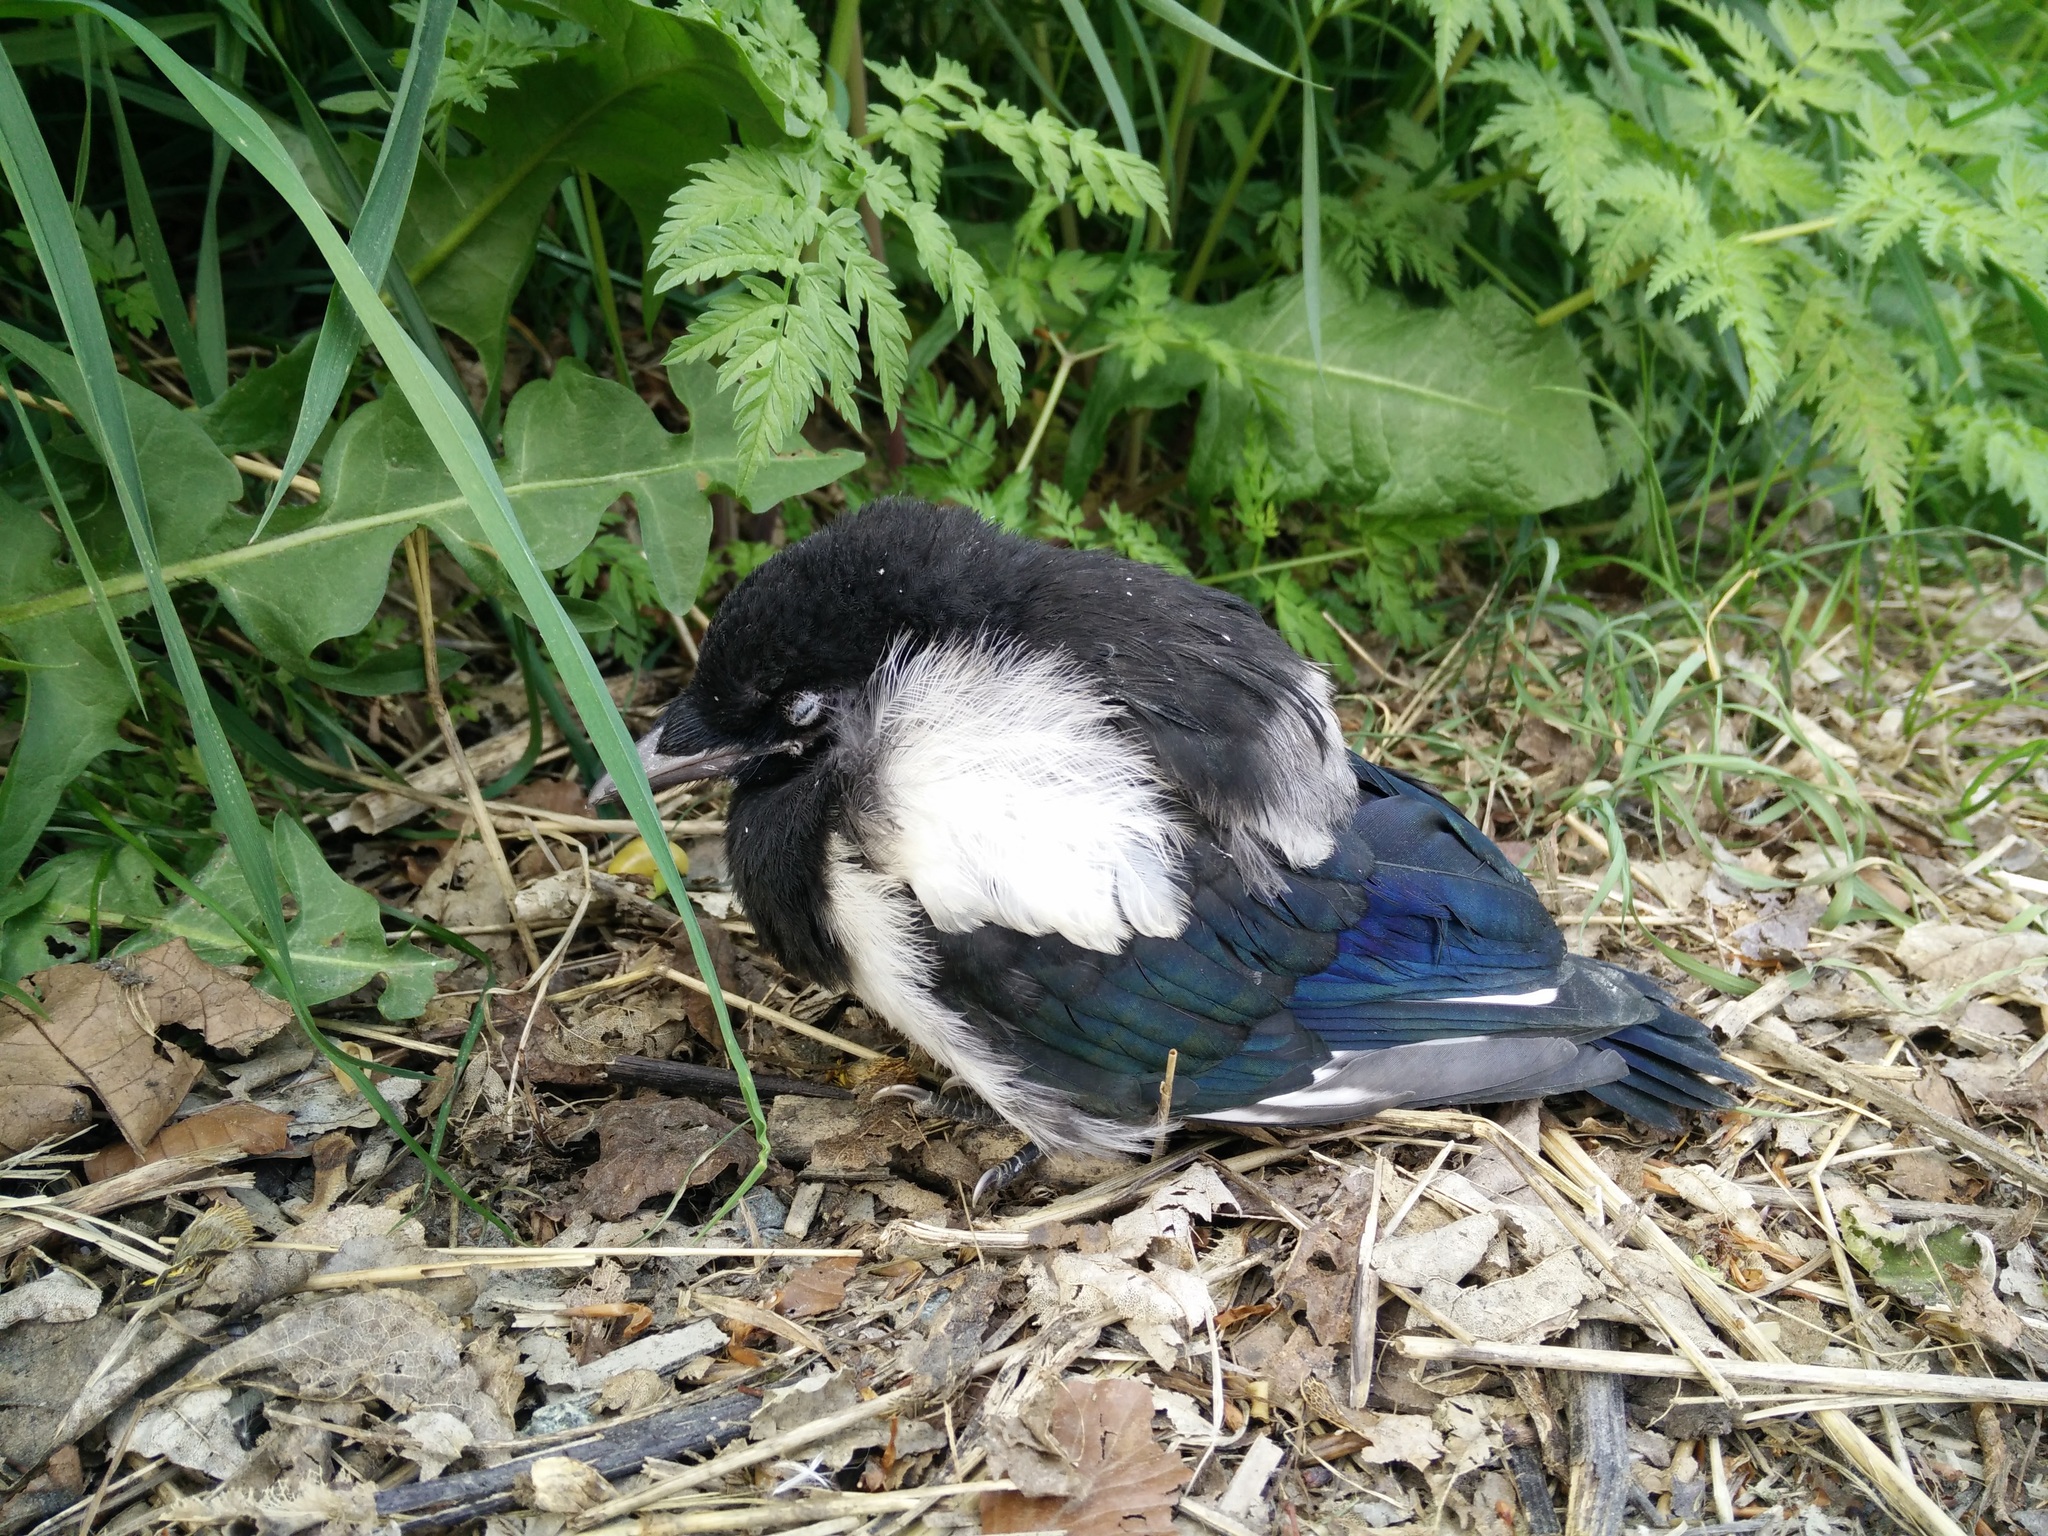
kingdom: Animalia
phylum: Chordata
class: Aves
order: Passeriformes
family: Corvidae
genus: Pica
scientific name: Pica pica
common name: Eurasian magpie
